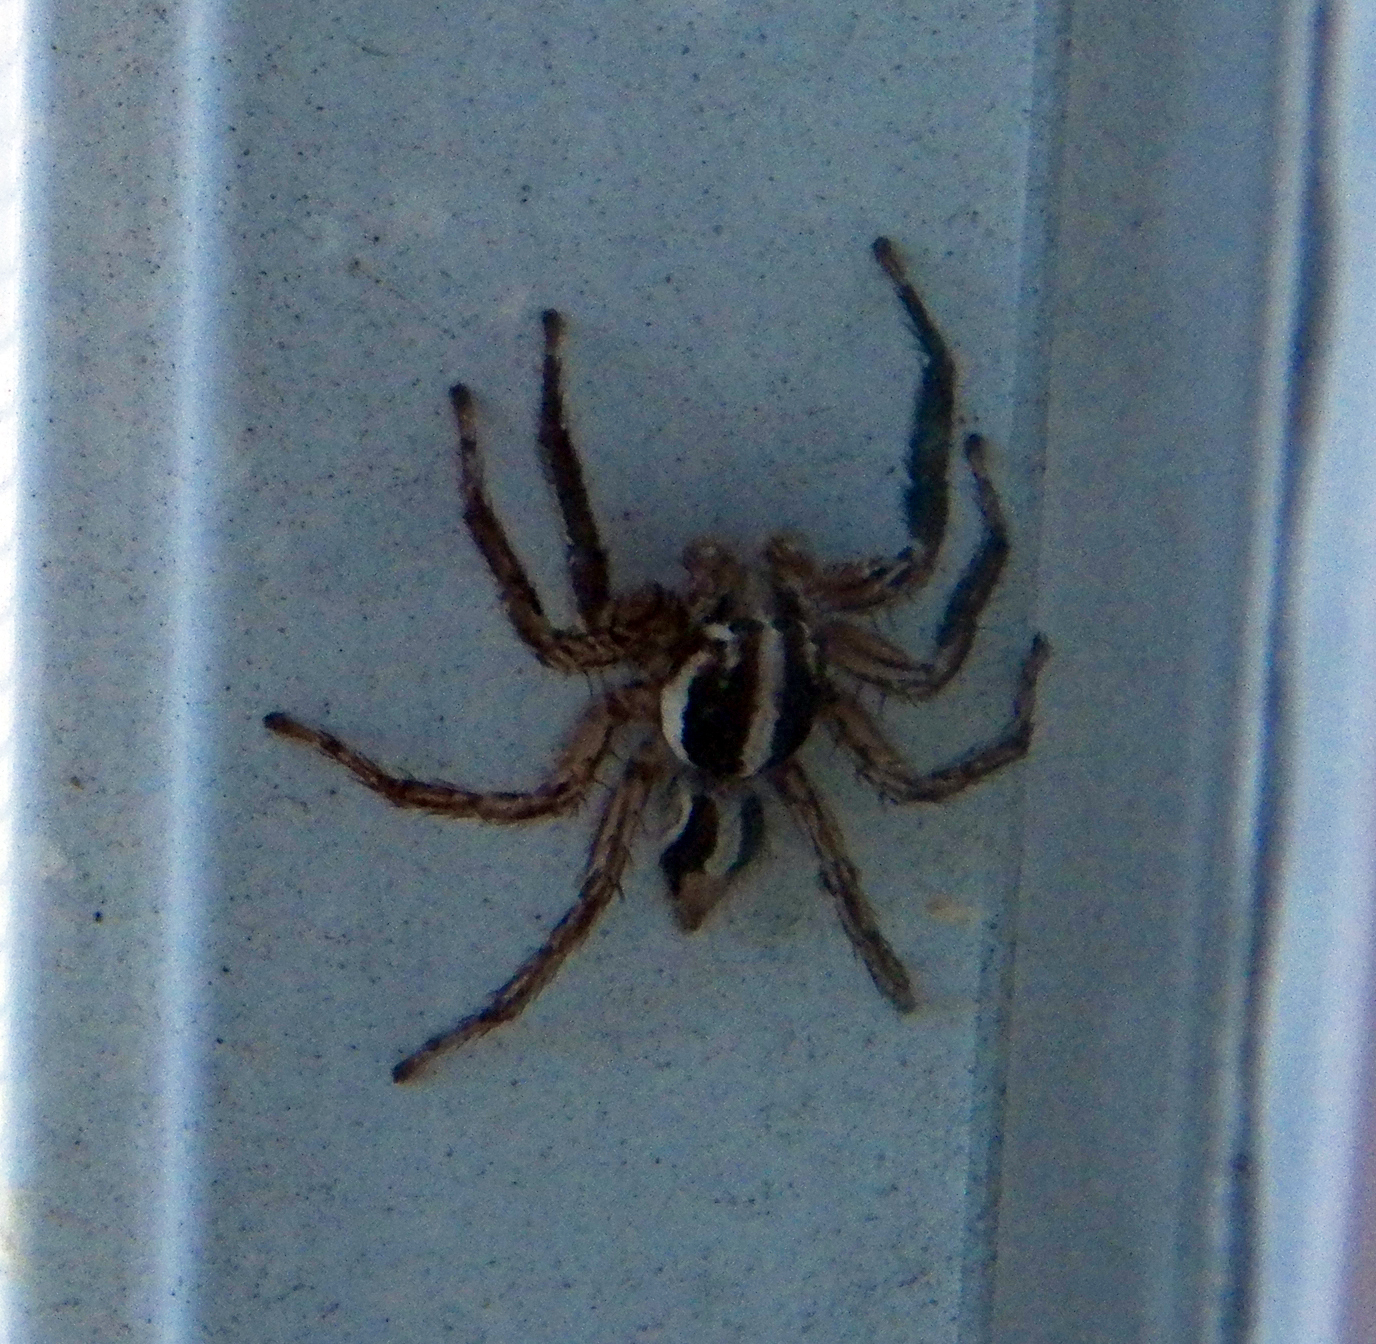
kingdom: Animalia
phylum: Arthropoda
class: Arachnida
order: Araneae
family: Salticidae
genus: Plexippus
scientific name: Plexippus paykulli
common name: Pantropical jumper
